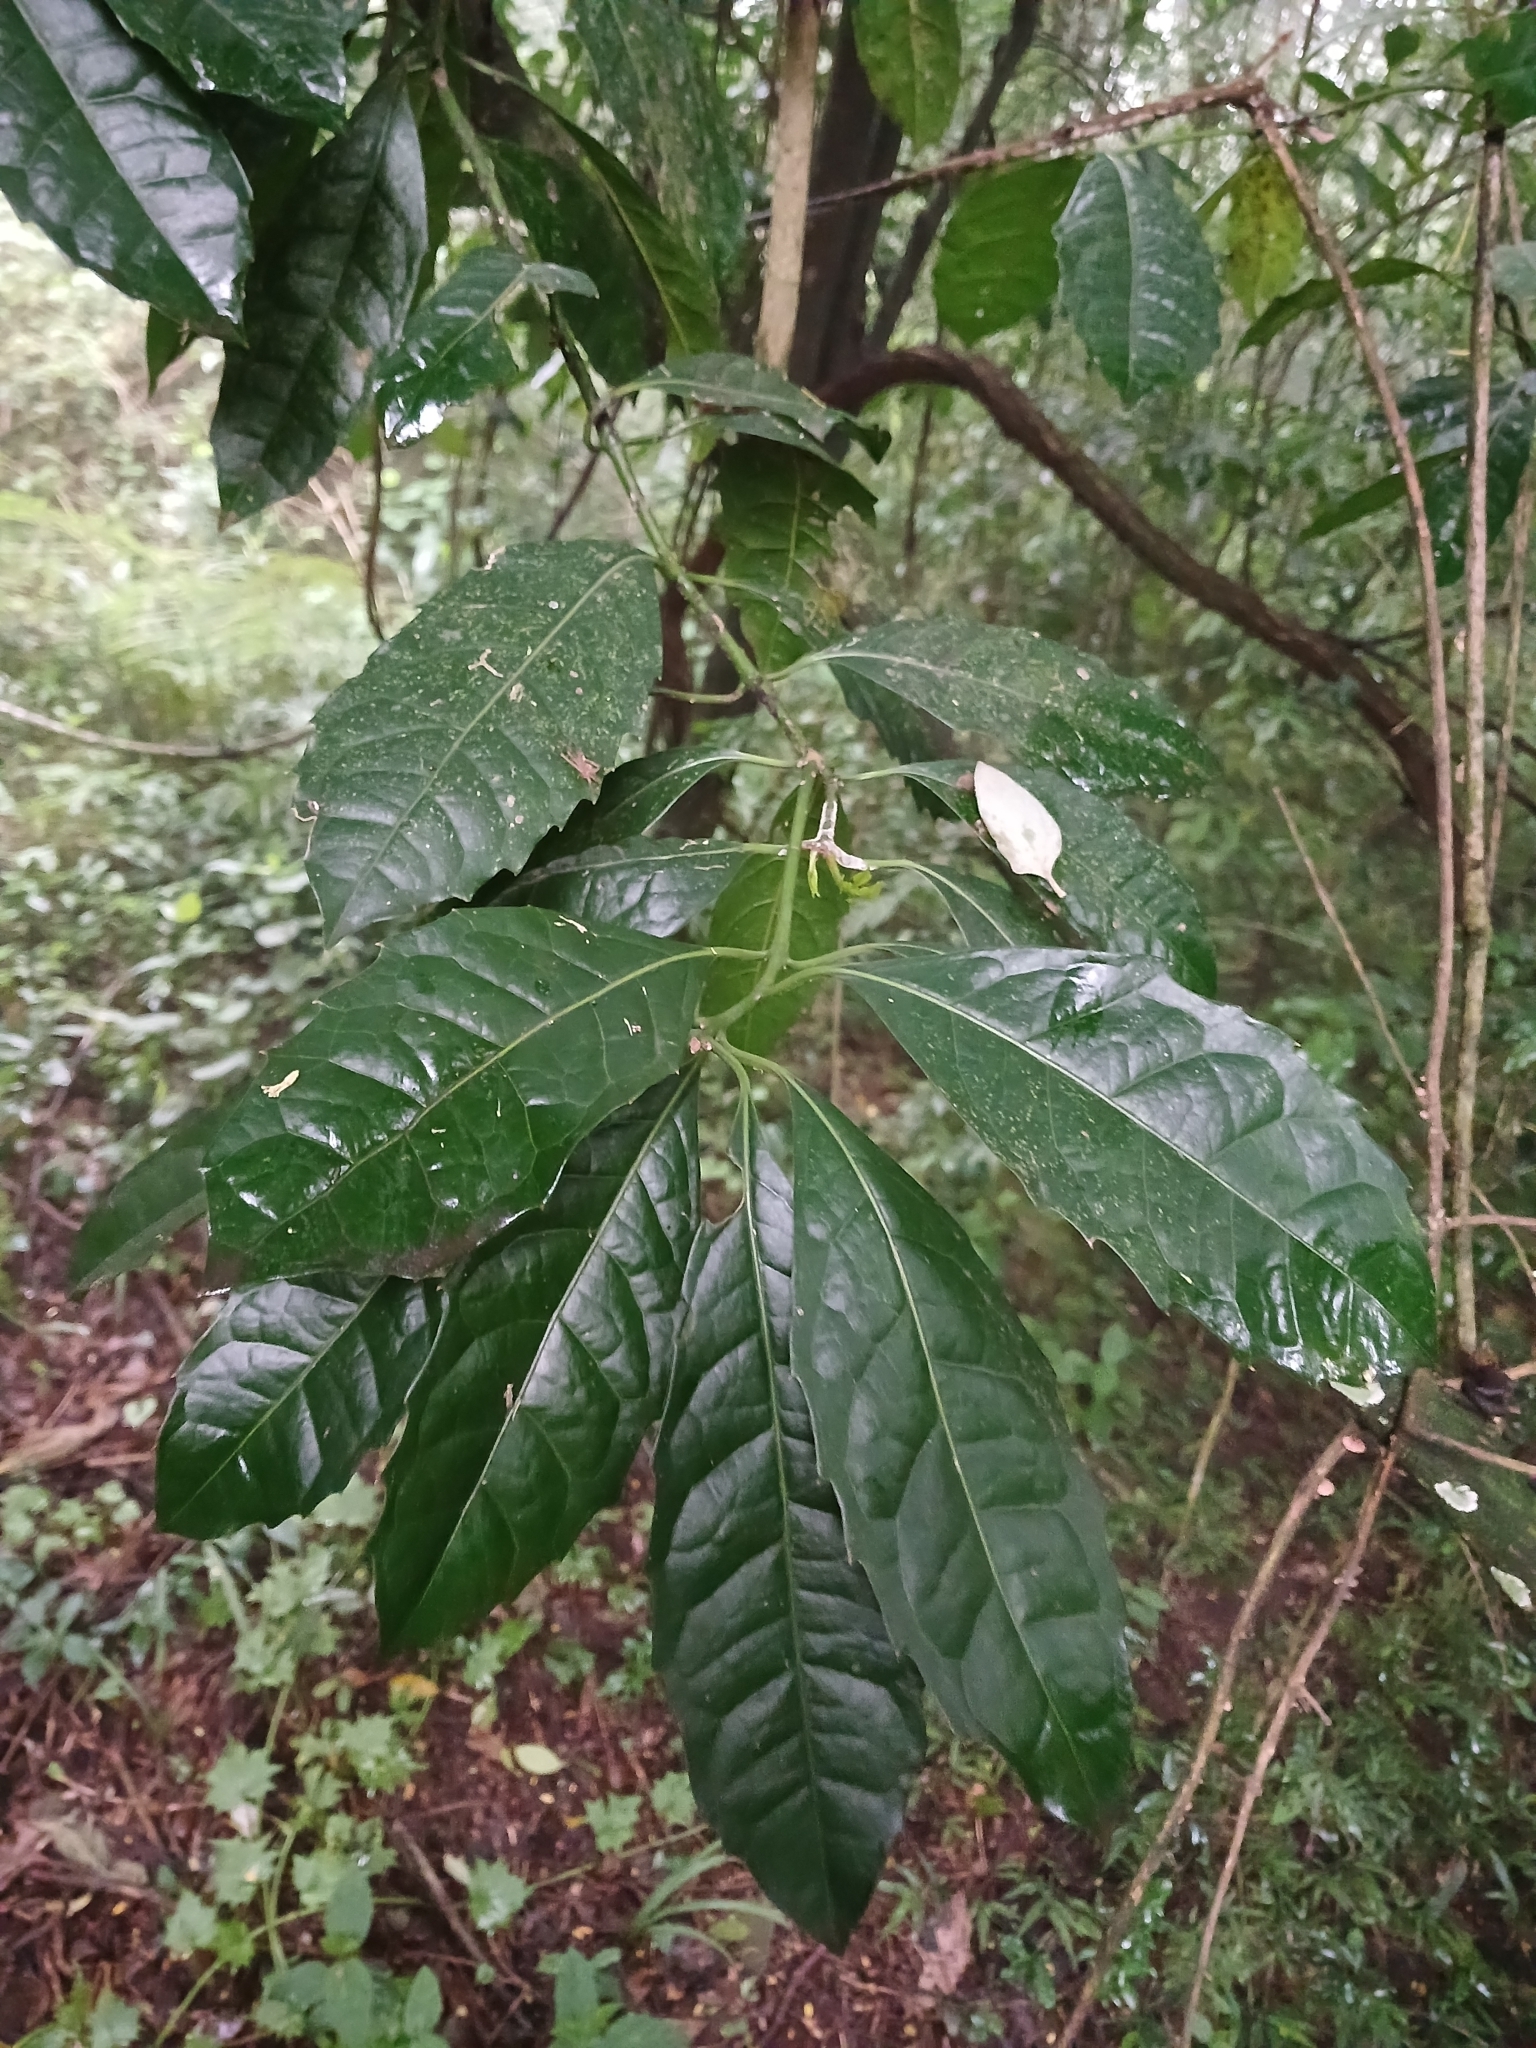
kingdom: Plantae
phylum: Tracheophyta
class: Magnoliopsida
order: Laurales
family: Monimiaceae
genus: Xymalos
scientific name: Xymalos monospora
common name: Lemonwood
